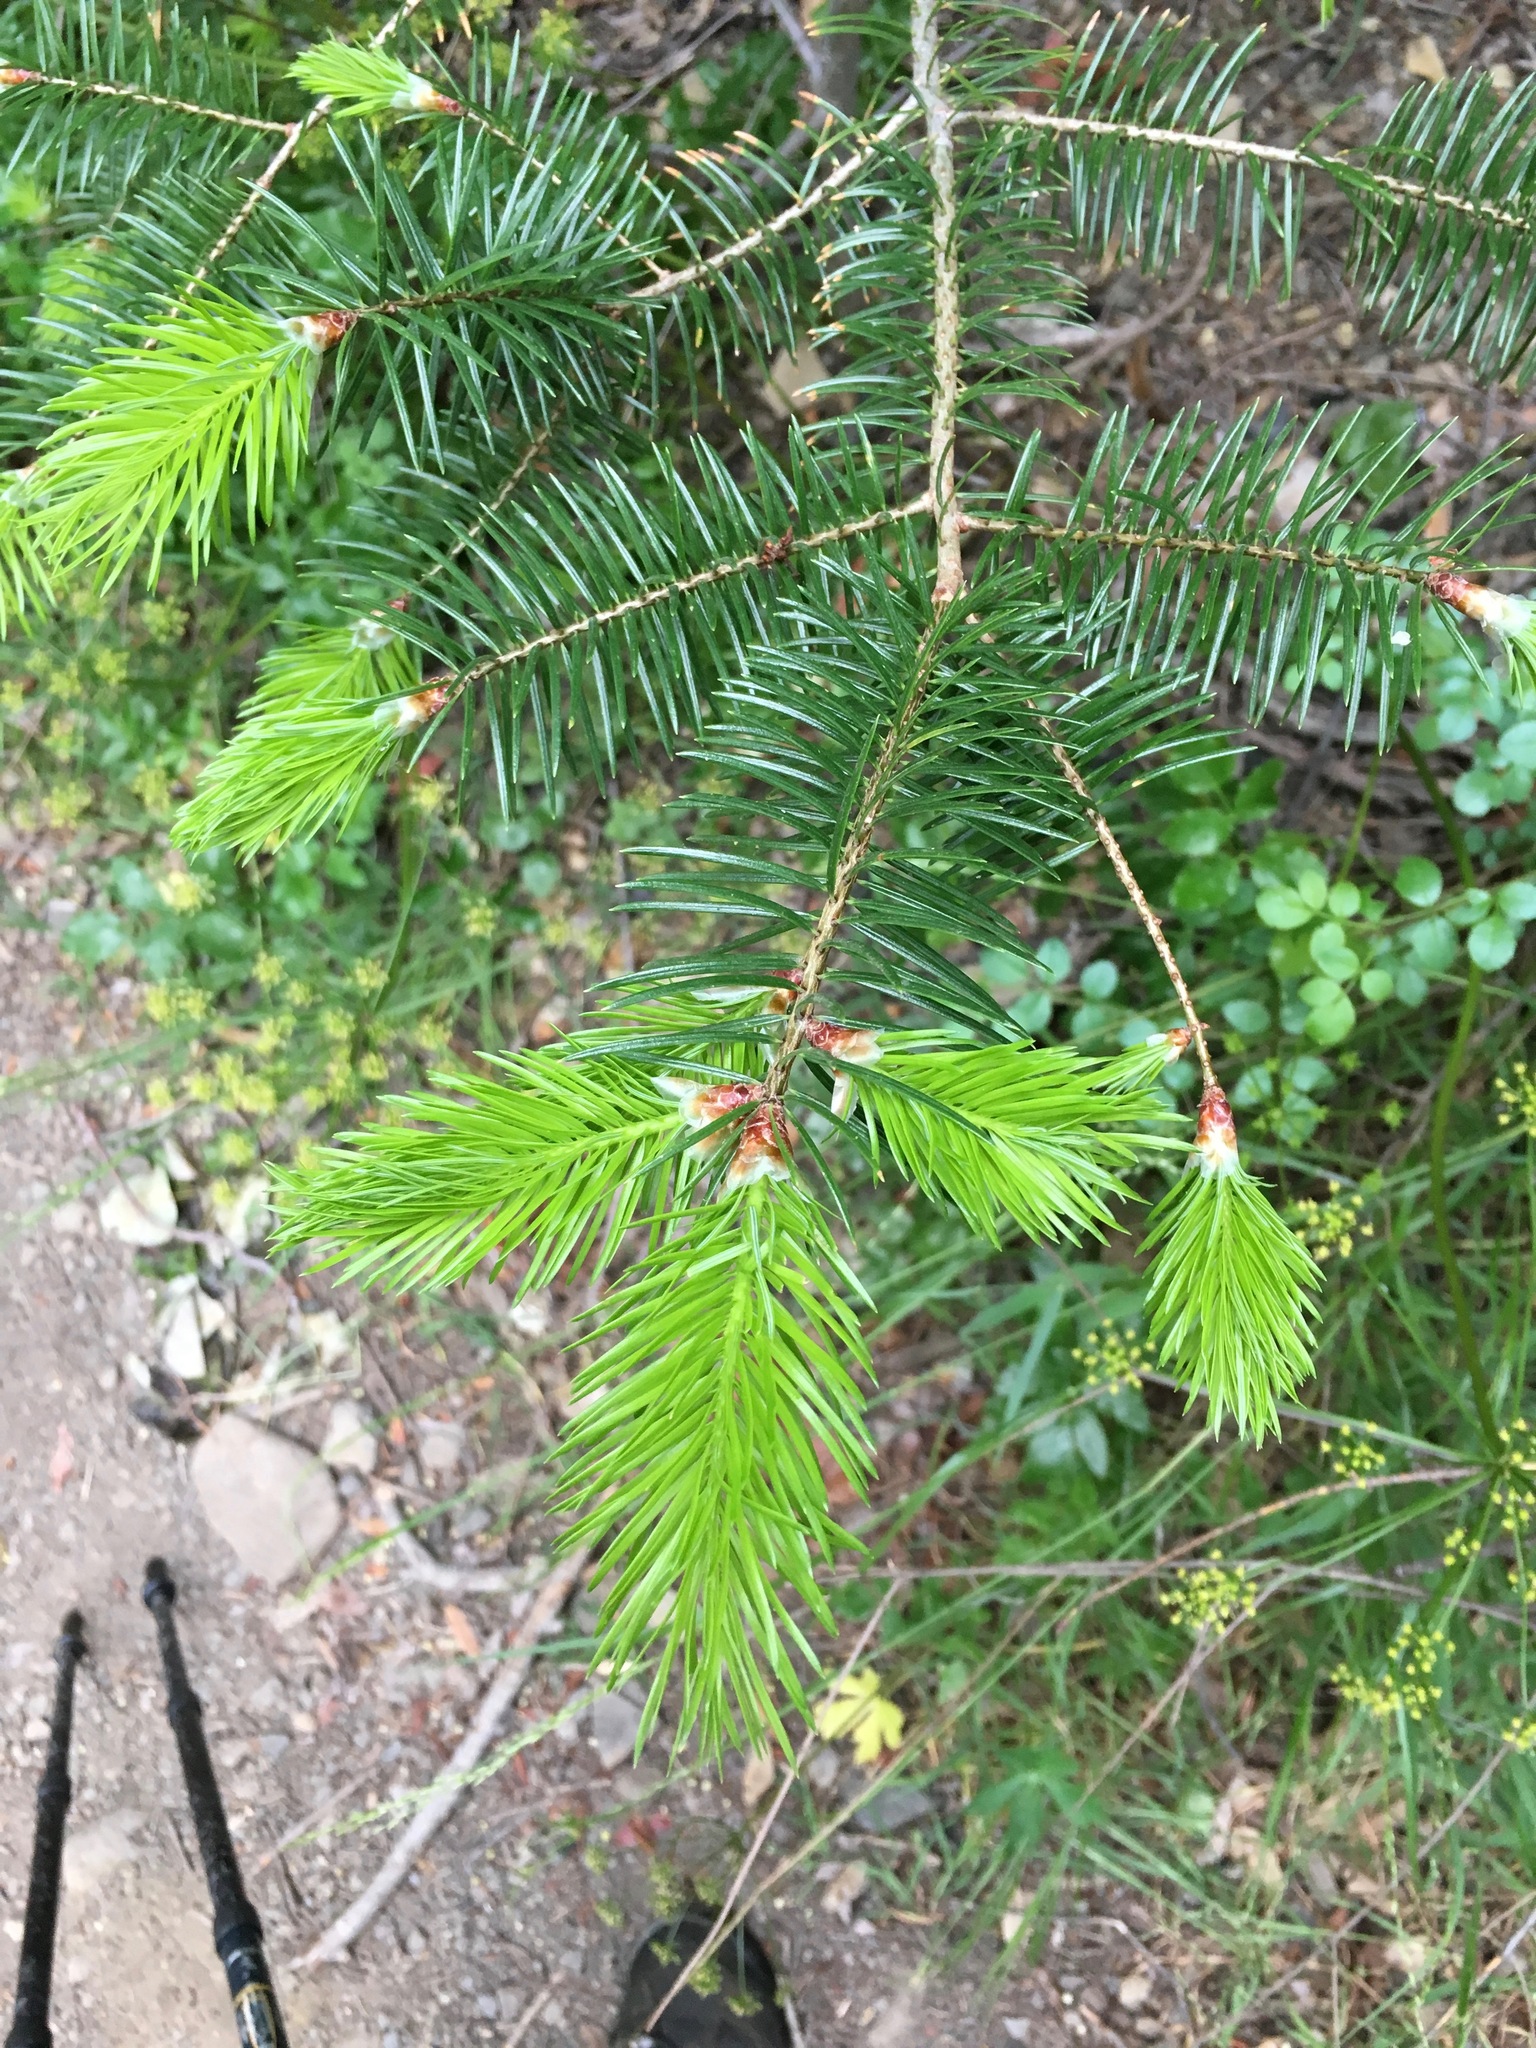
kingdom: Plantae
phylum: Tracheophyta
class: Pinopsida
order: Pinales
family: Pinaceae
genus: Pseudotsuga
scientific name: Pseudotsuga macrocarpa
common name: Big-cone douglas-fir
